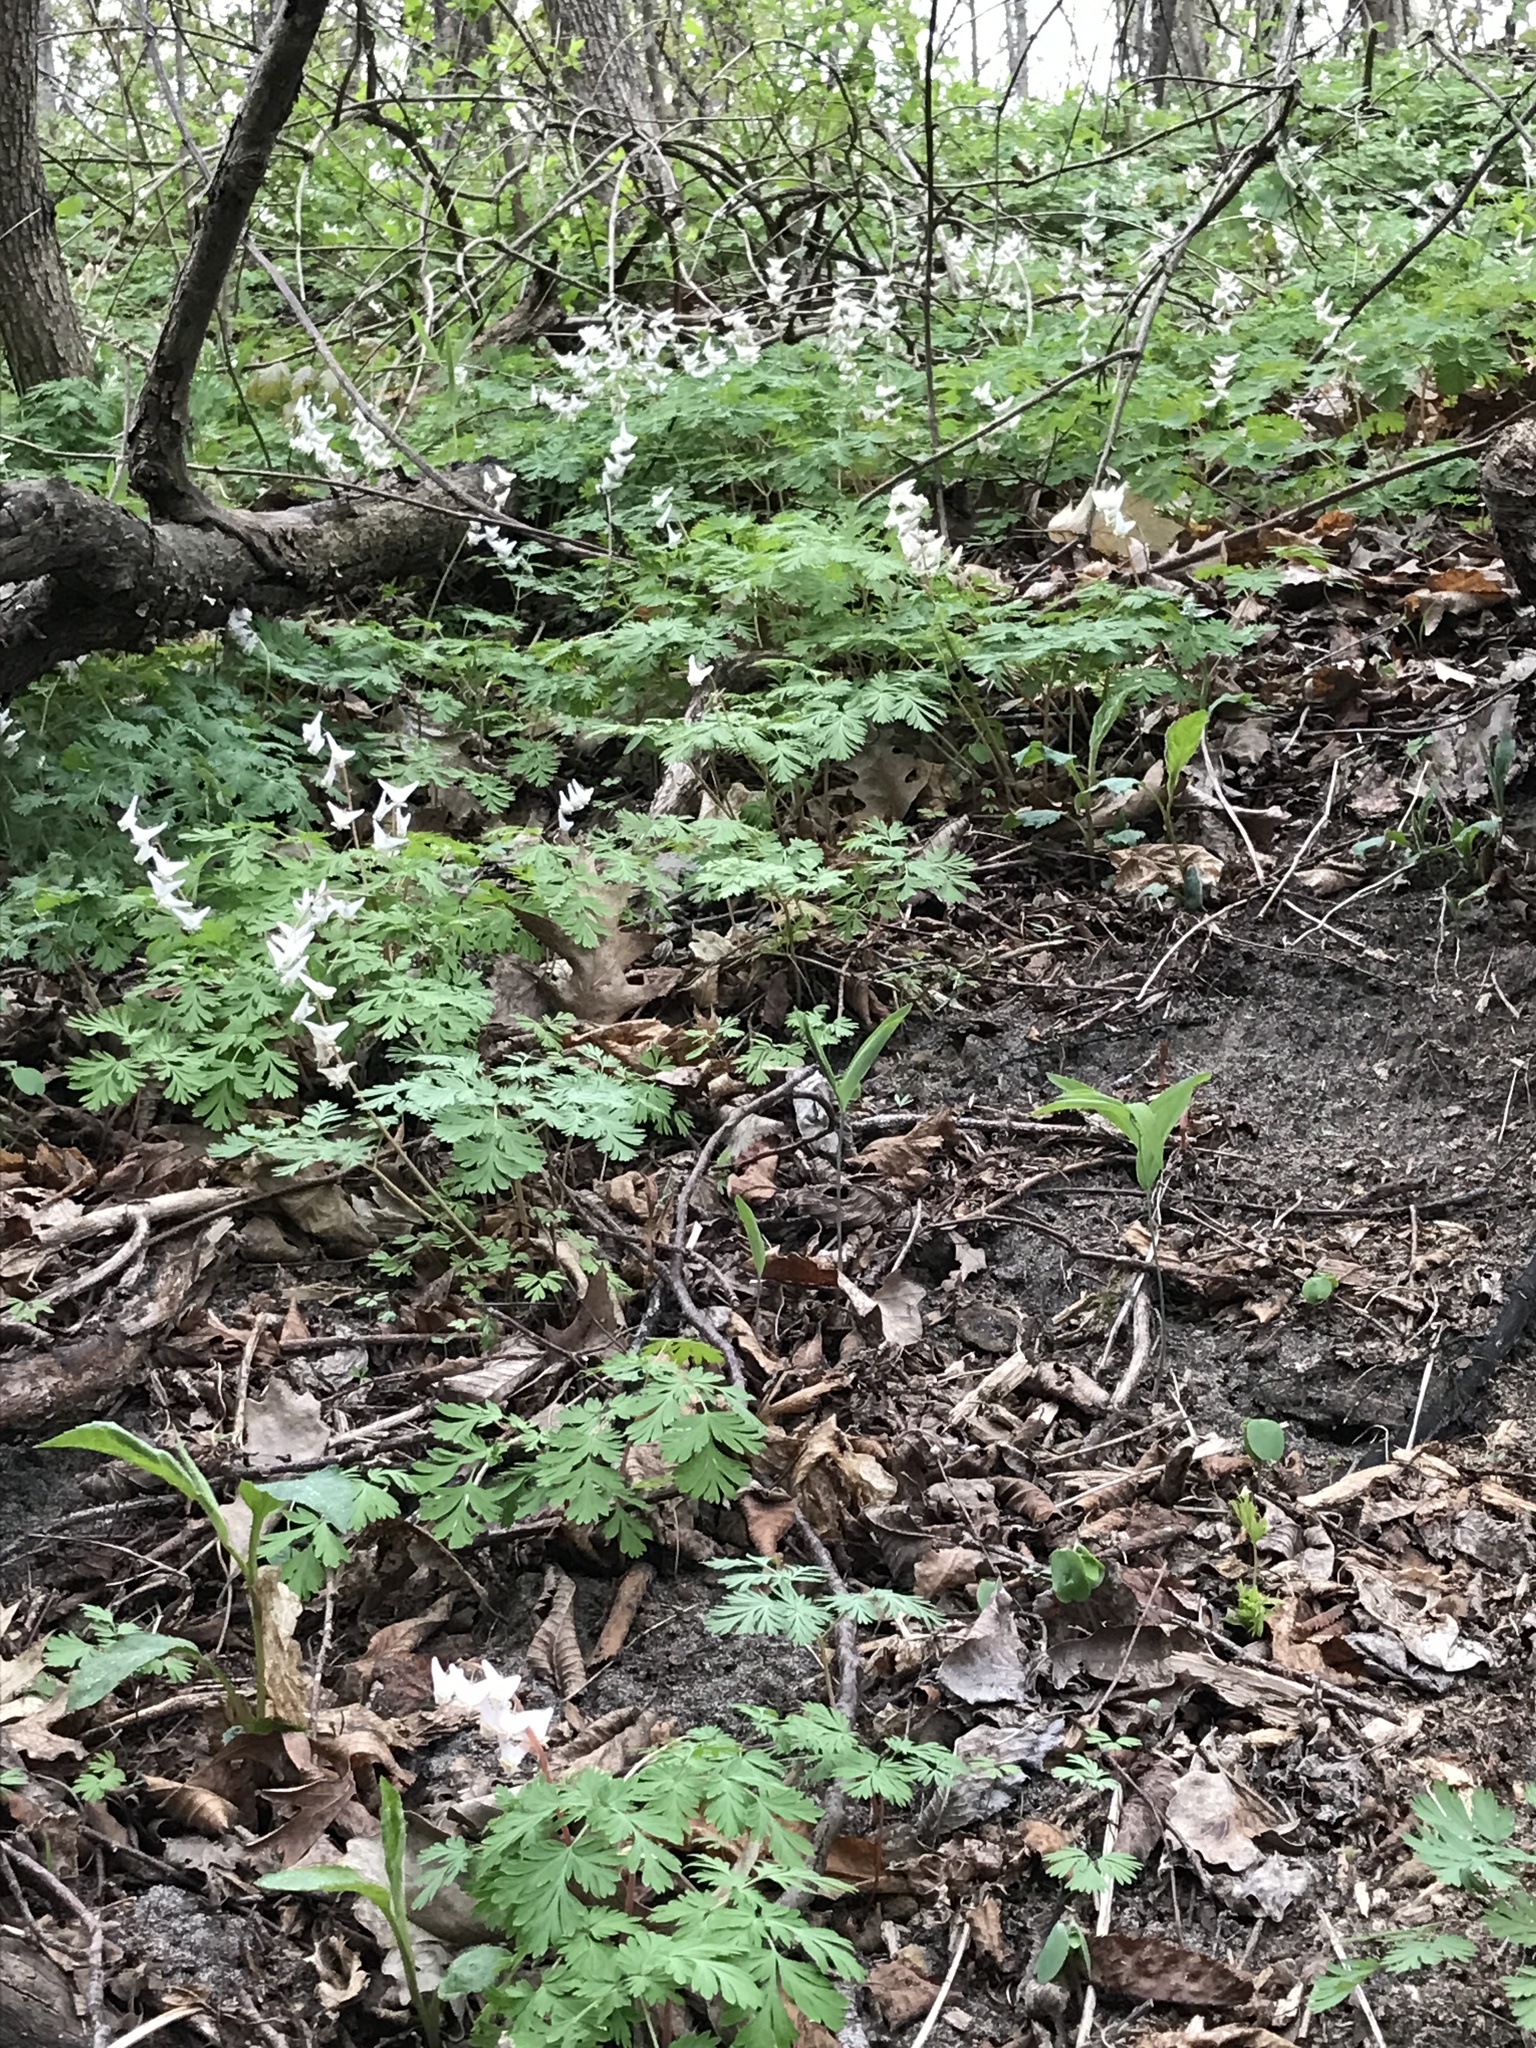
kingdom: Plantae
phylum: Tracheophyta
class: Magnoliopsida
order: Ranunculales
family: Papaveraceae
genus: Dicentra
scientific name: Dicentra cucullaria
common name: Dutchman's breeches
